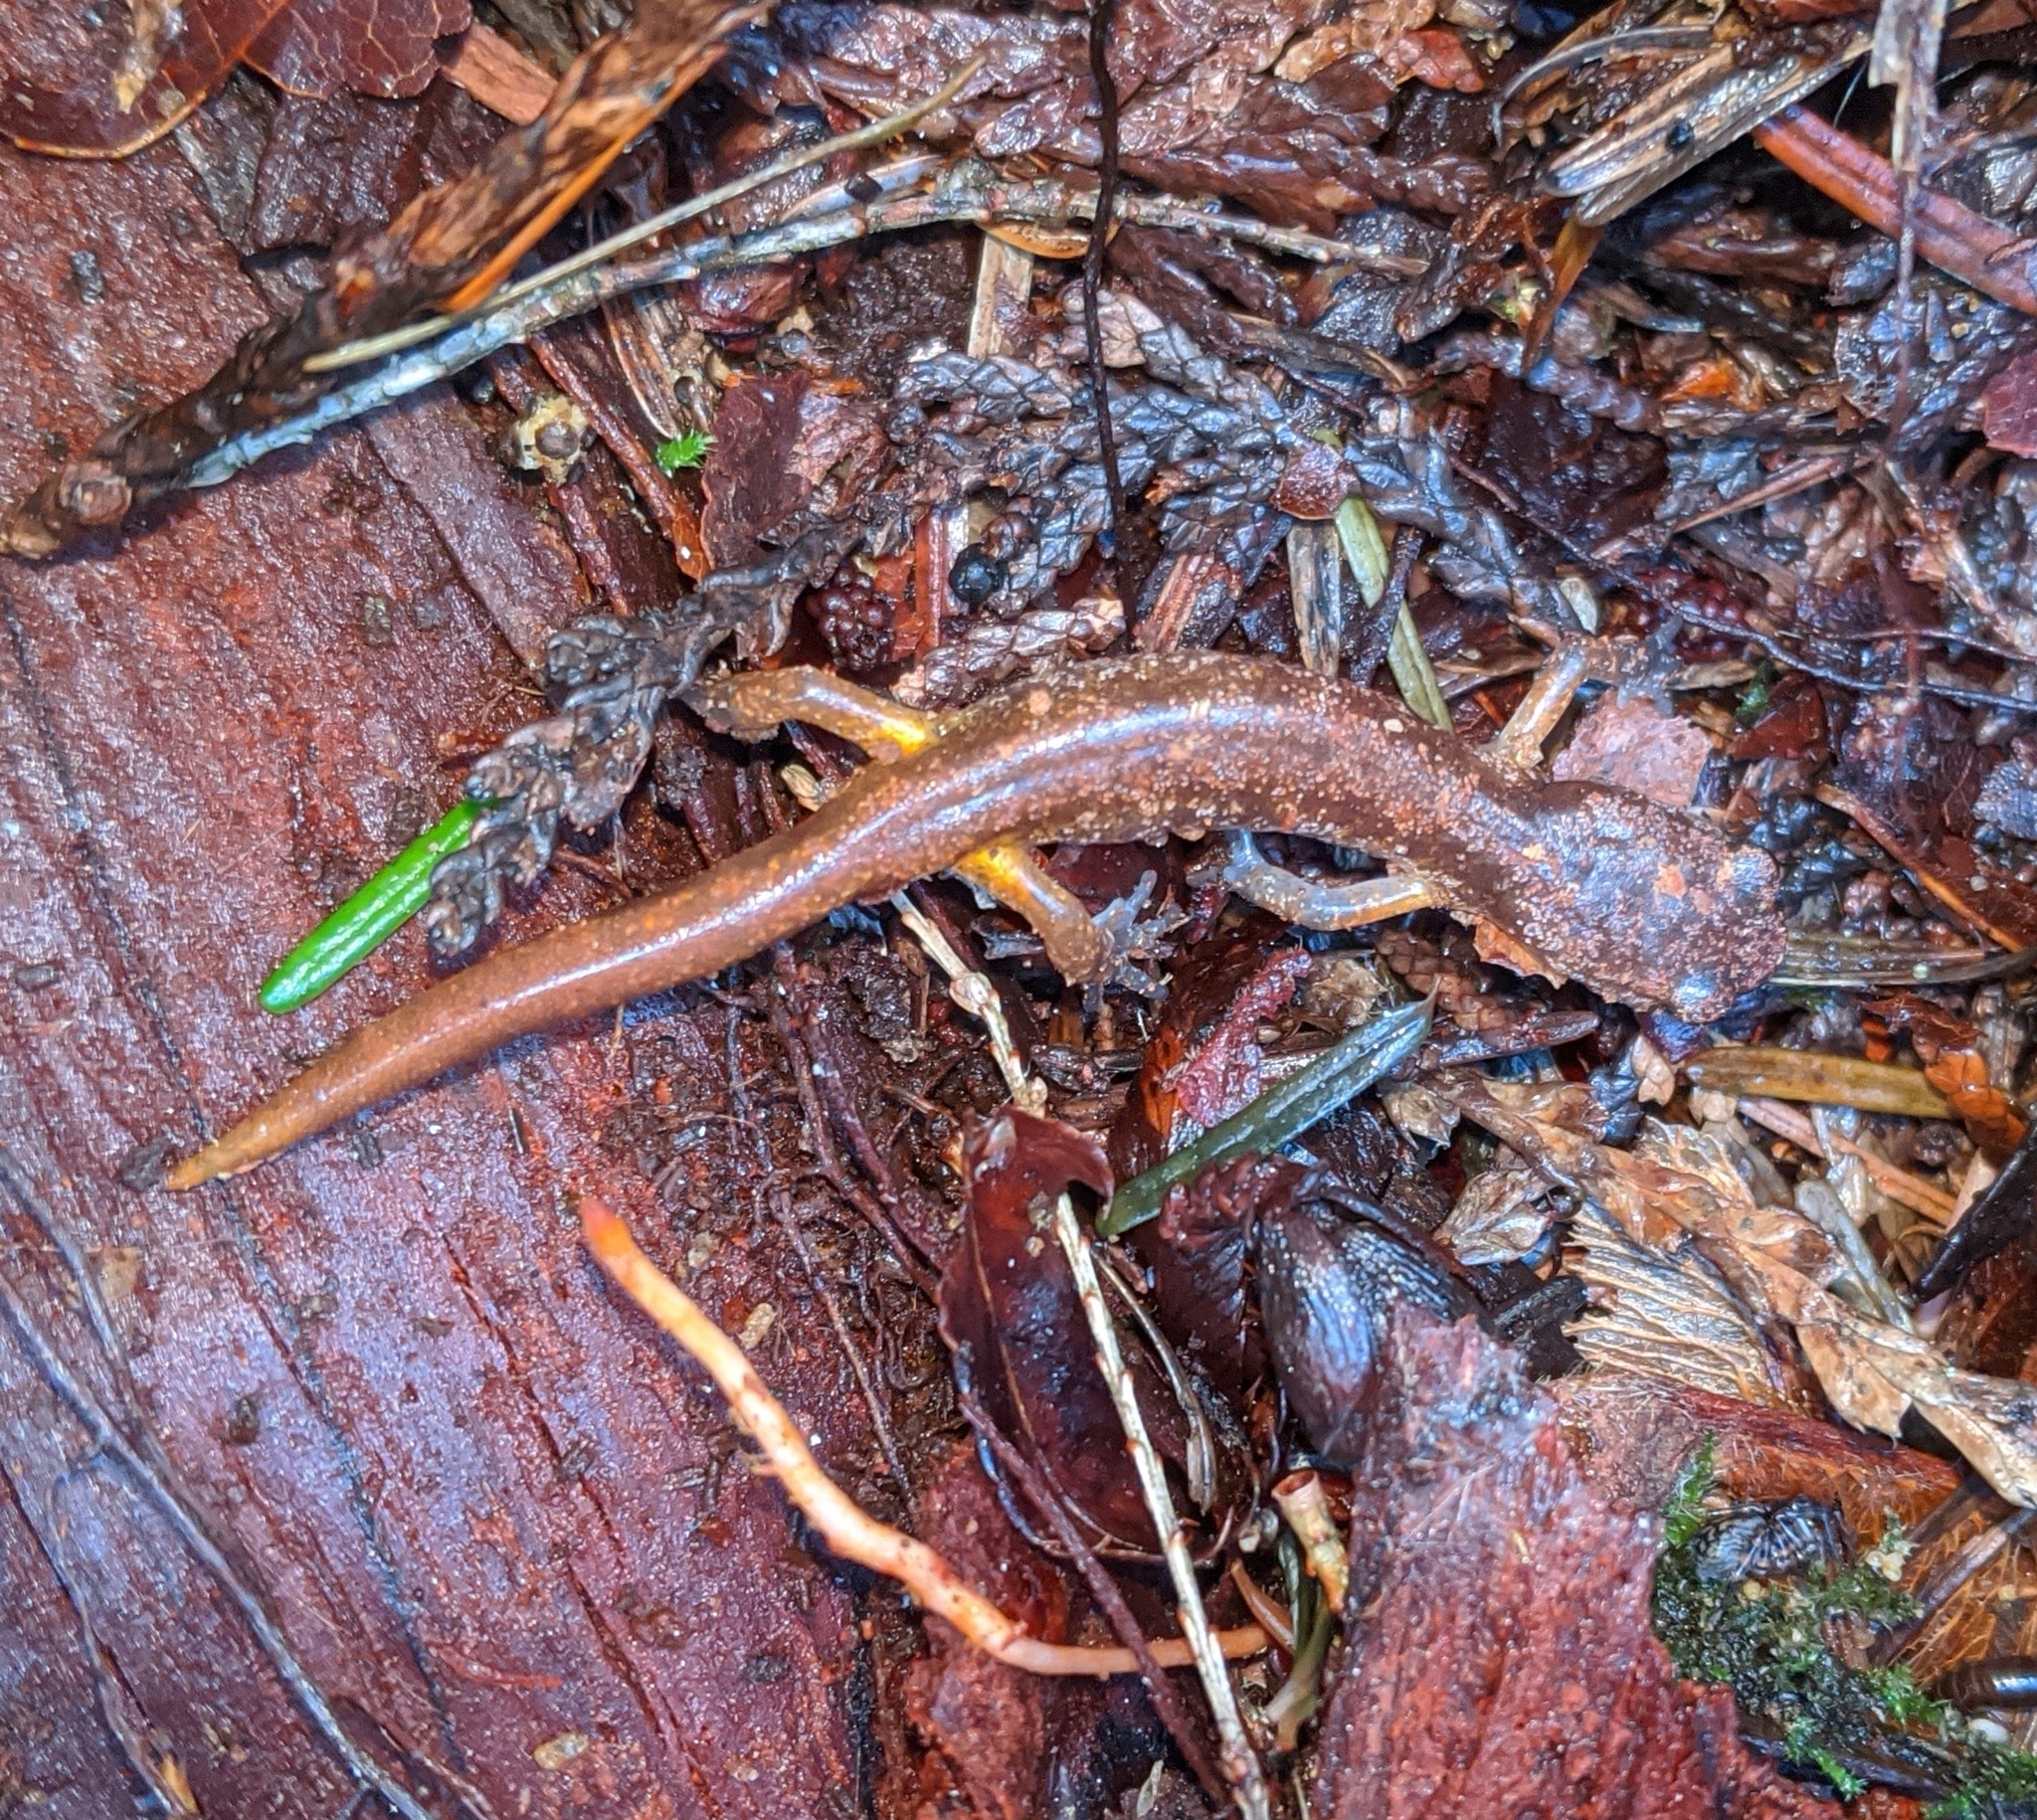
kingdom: Animalia
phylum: Chordata
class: Amphibia
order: Caudata
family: Plethodontidae
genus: Ensatina
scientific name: Ensatina eschscholtzii
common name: Ensatina
